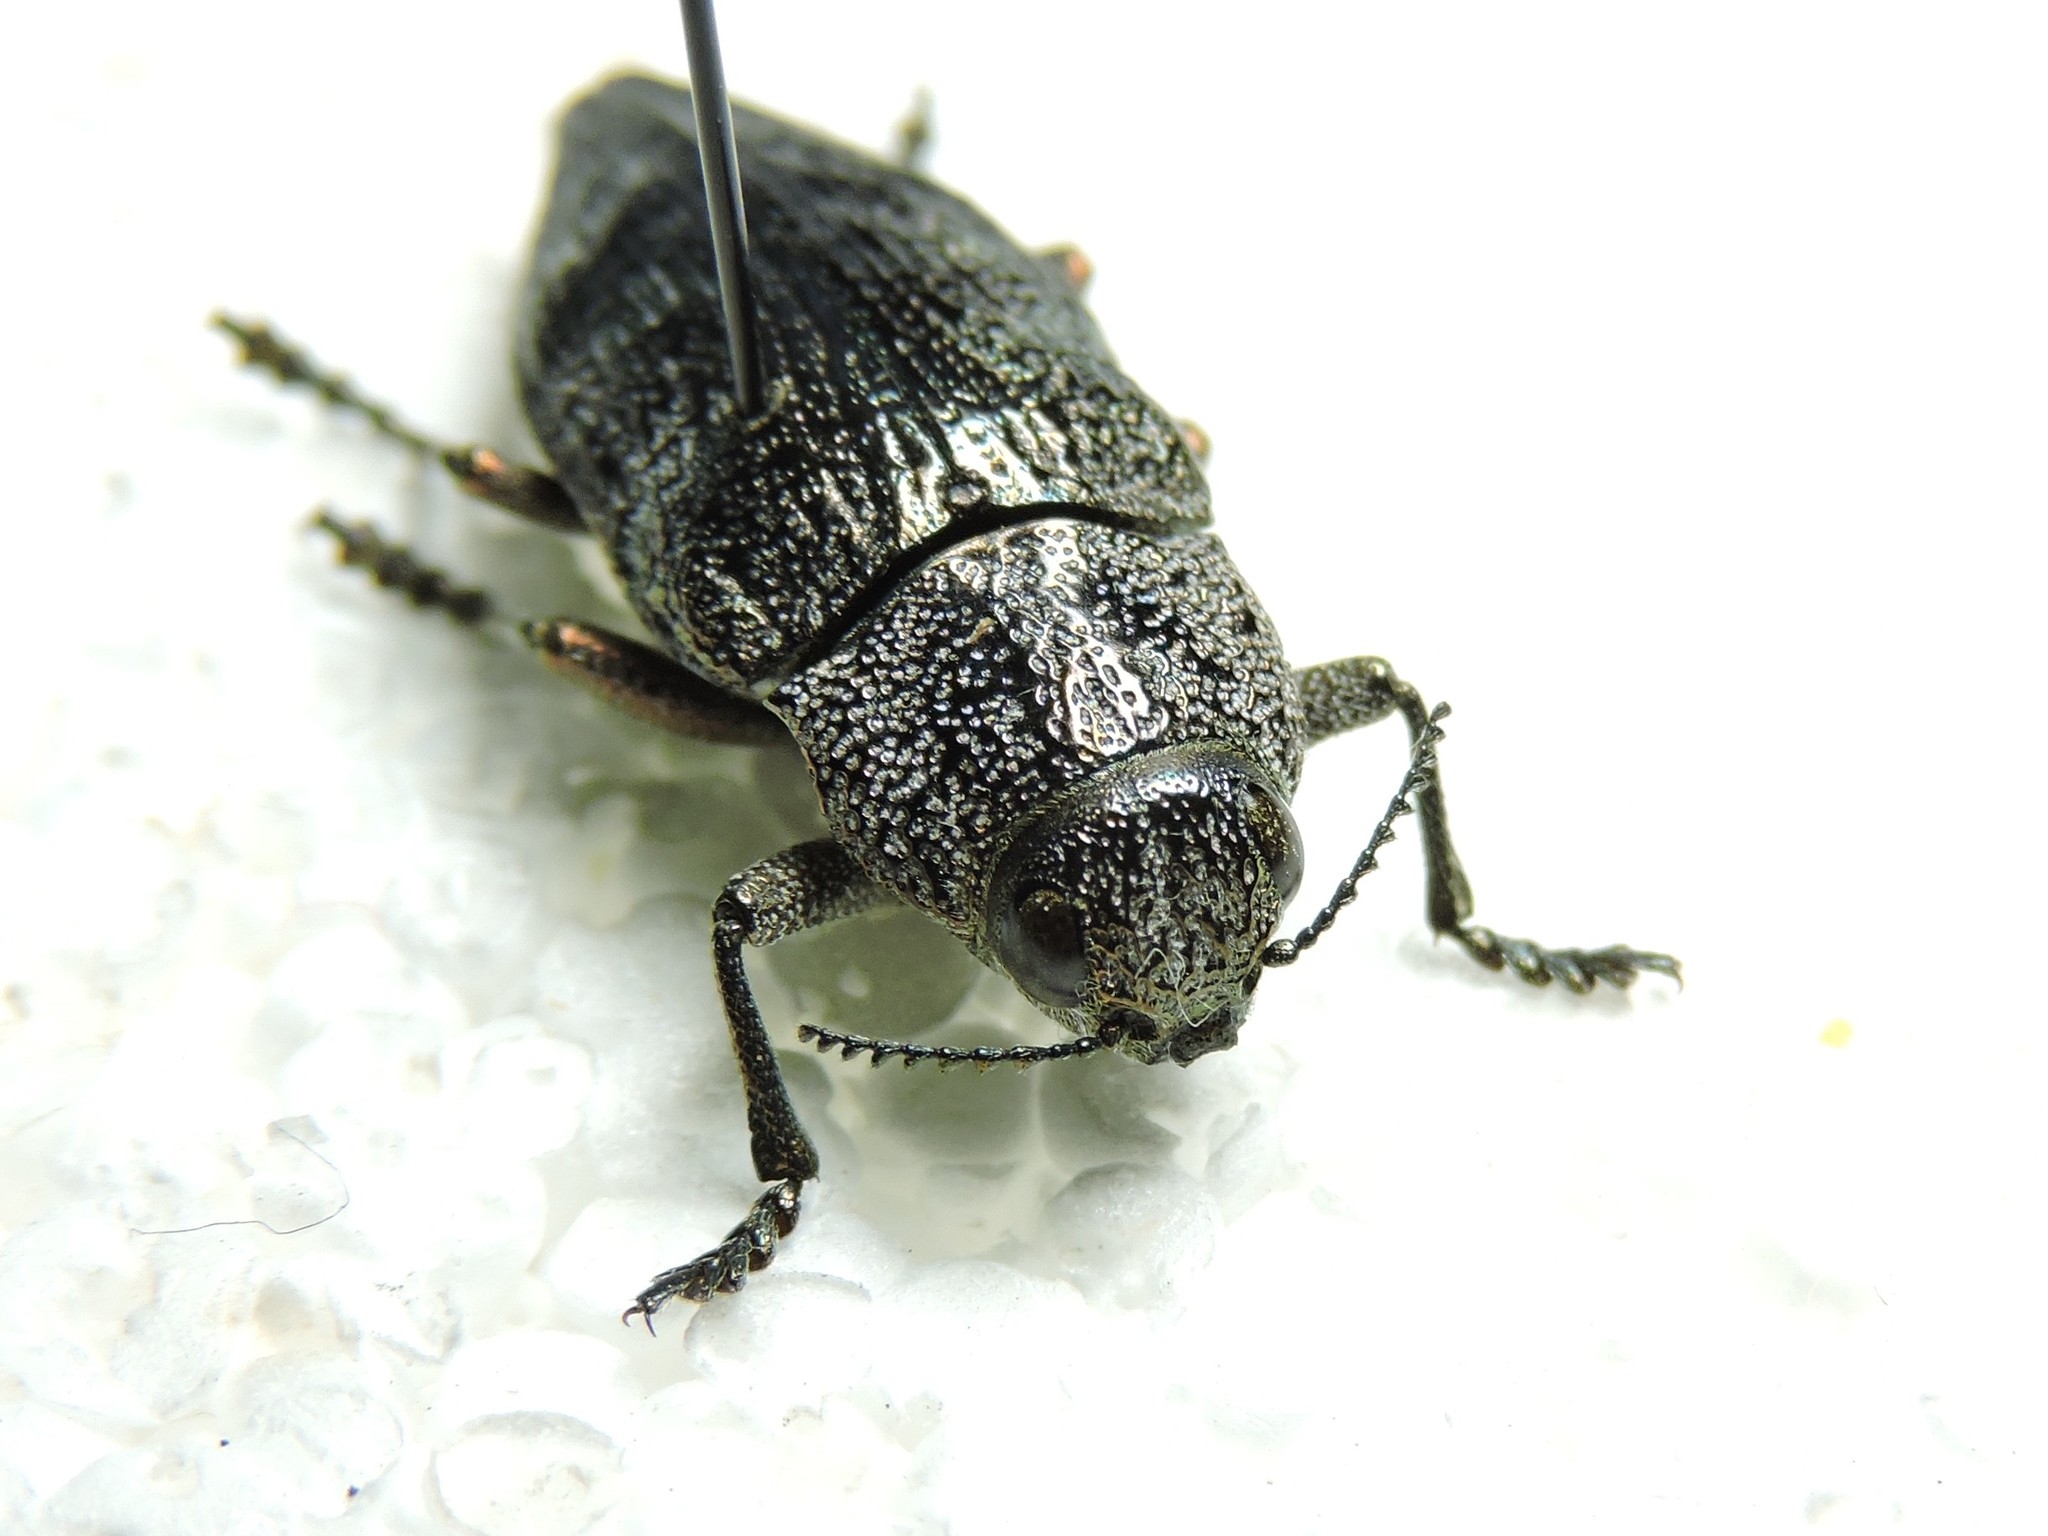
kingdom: Animalia
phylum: Arthropoda
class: Insecta
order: Coleoptera
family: Buprestidae
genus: Dicerca
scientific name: Dicerca aenea
